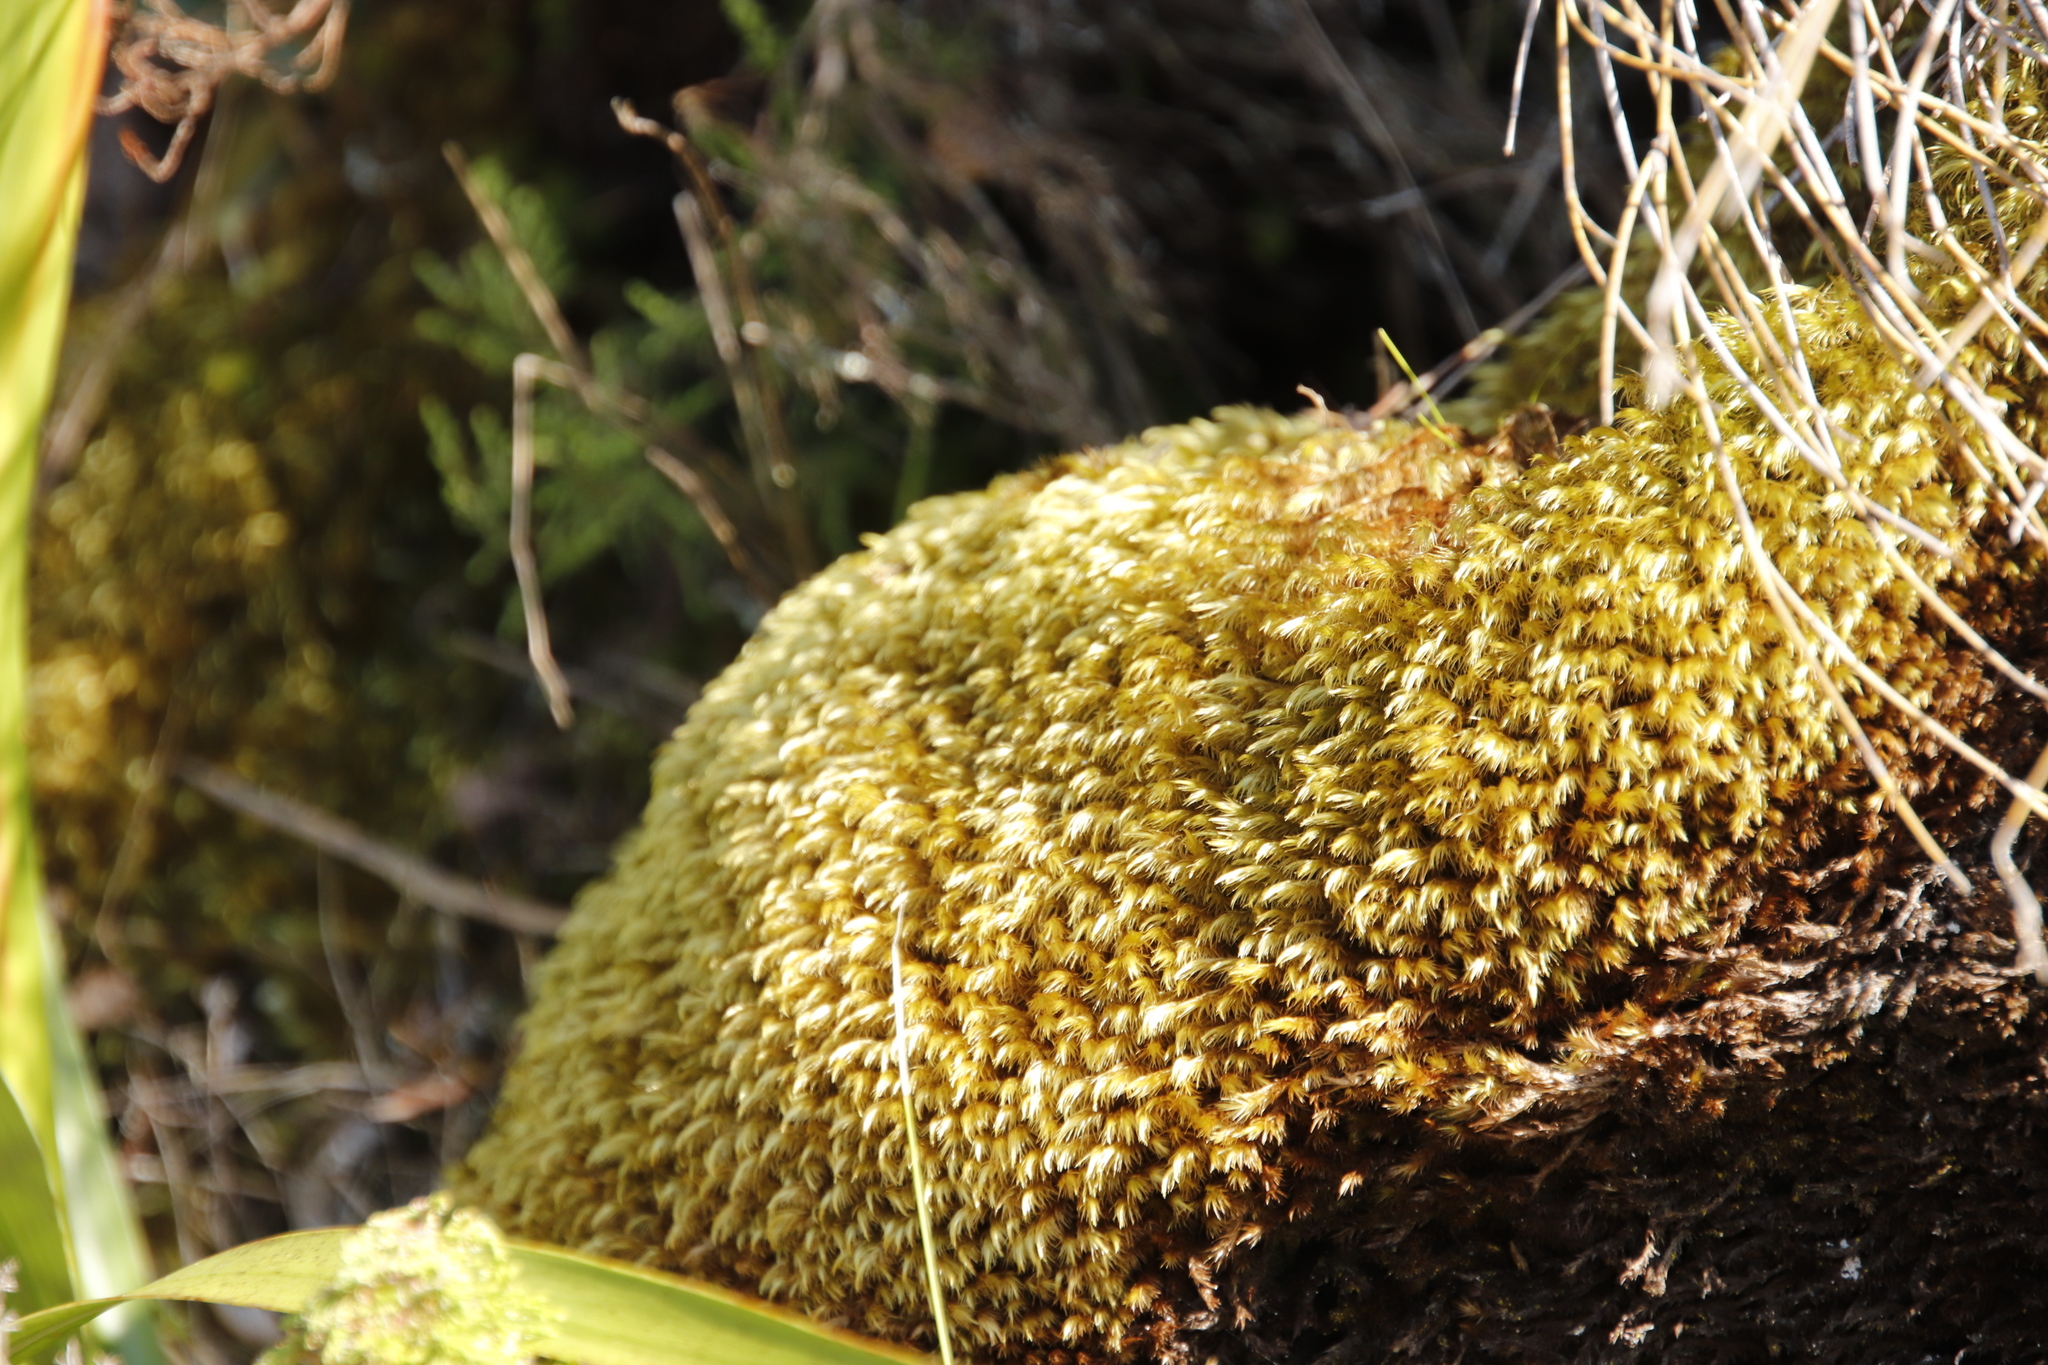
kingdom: Plantae
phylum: Bryophyta
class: Bryopsida
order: Dicranales
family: Dicranaceae
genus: Dicranoloma
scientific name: Dicranoloma billardieri
